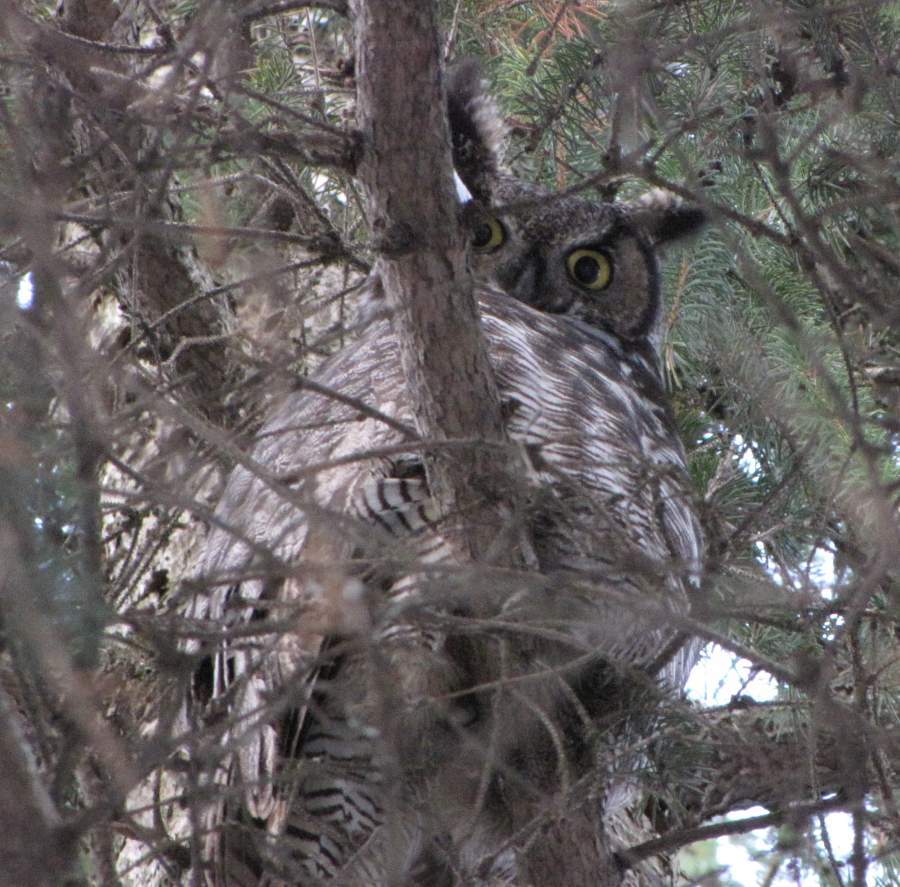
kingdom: Animalia
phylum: Chordata
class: Aves
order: Strigiformes
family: Strigidae
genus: Bubo
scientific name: Bubo virginianus
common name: Great horned owl
